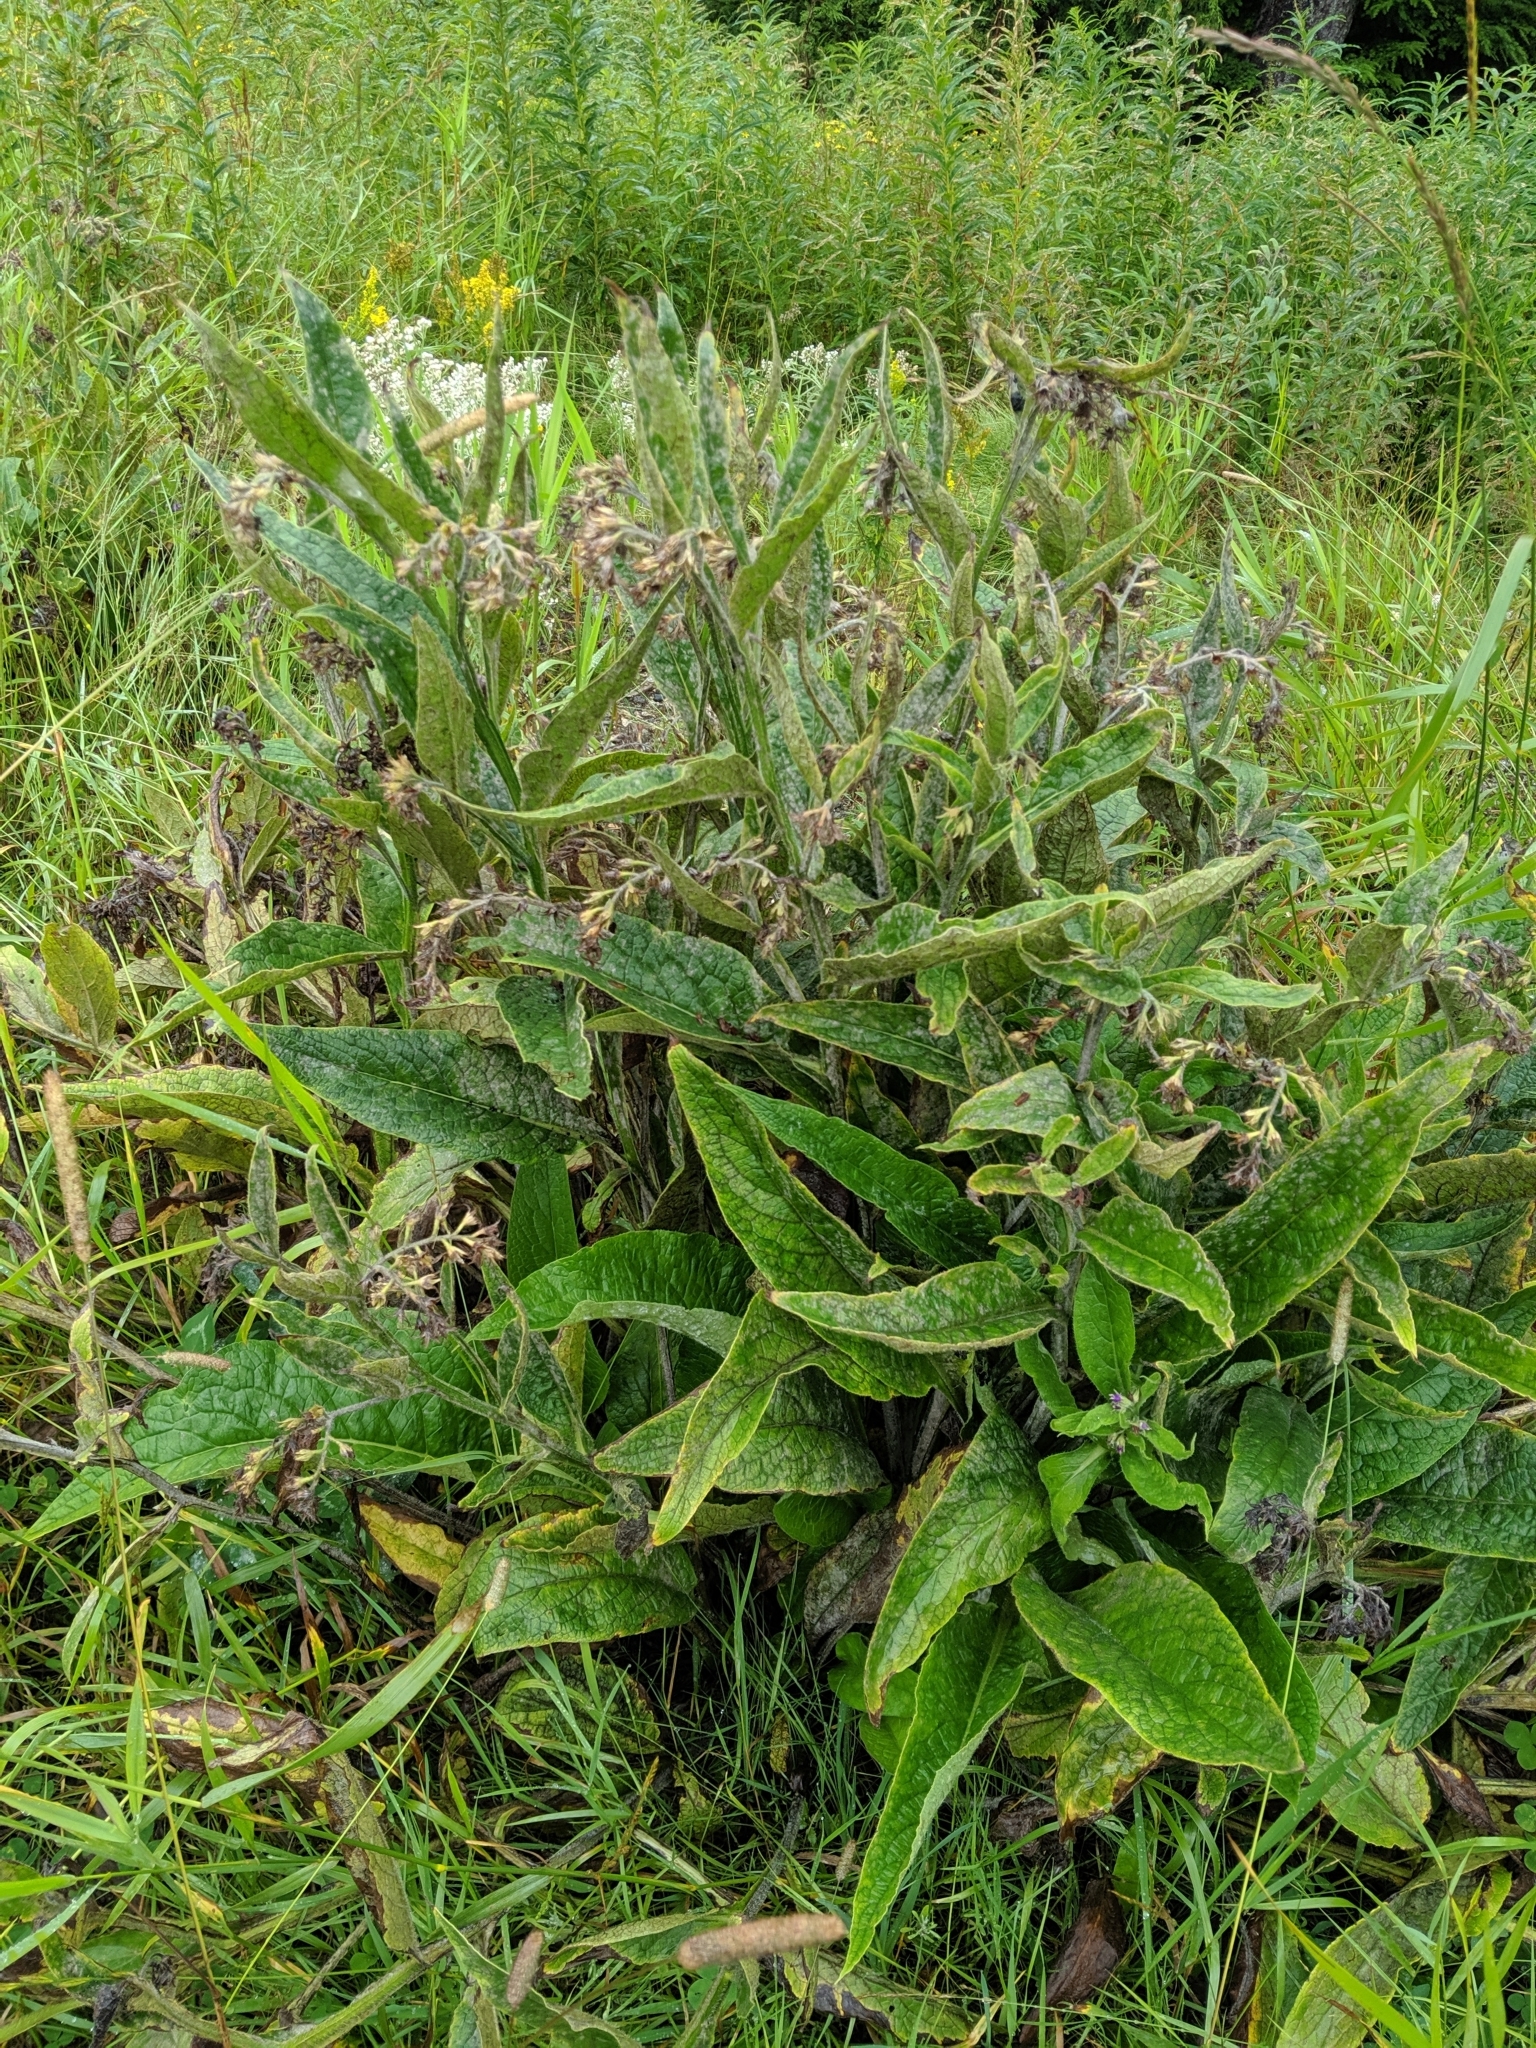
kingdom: Plantae
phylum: Tracheophyta
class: Magnoliopsida
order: Boraginales
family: Boraginaceae
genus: Symphytum
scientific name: Symphytum officinale
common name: Common comfrey
